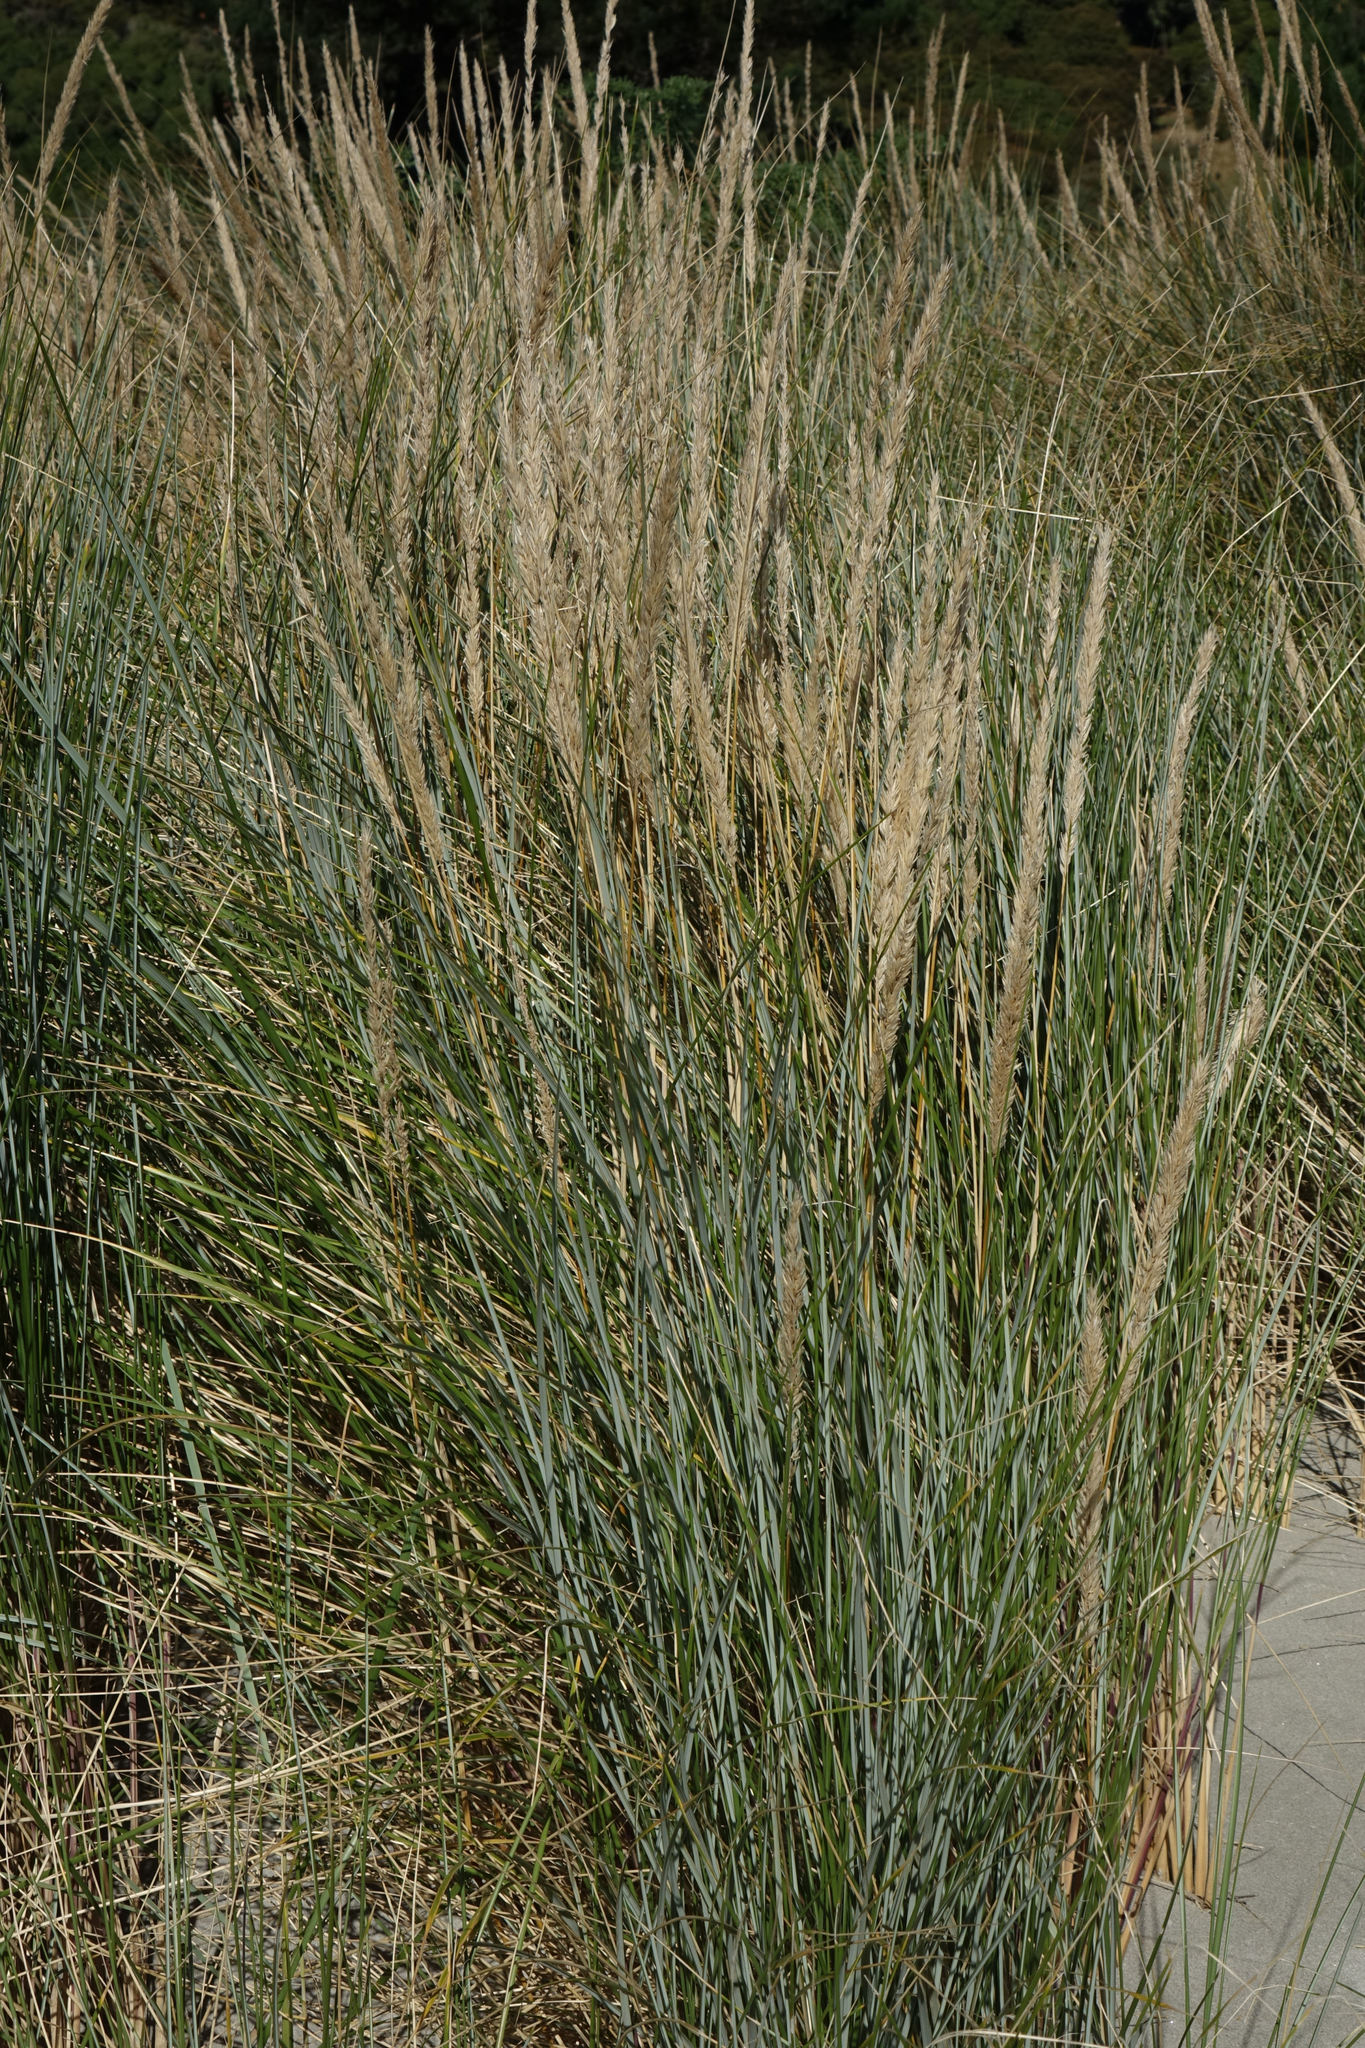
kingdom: Plantae
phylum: Tracheophyta
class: Liliopsida
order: Poales
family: Poaceae
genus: Calamagrostis
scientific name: Calamagrostis arenaria
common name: European beachgrass
